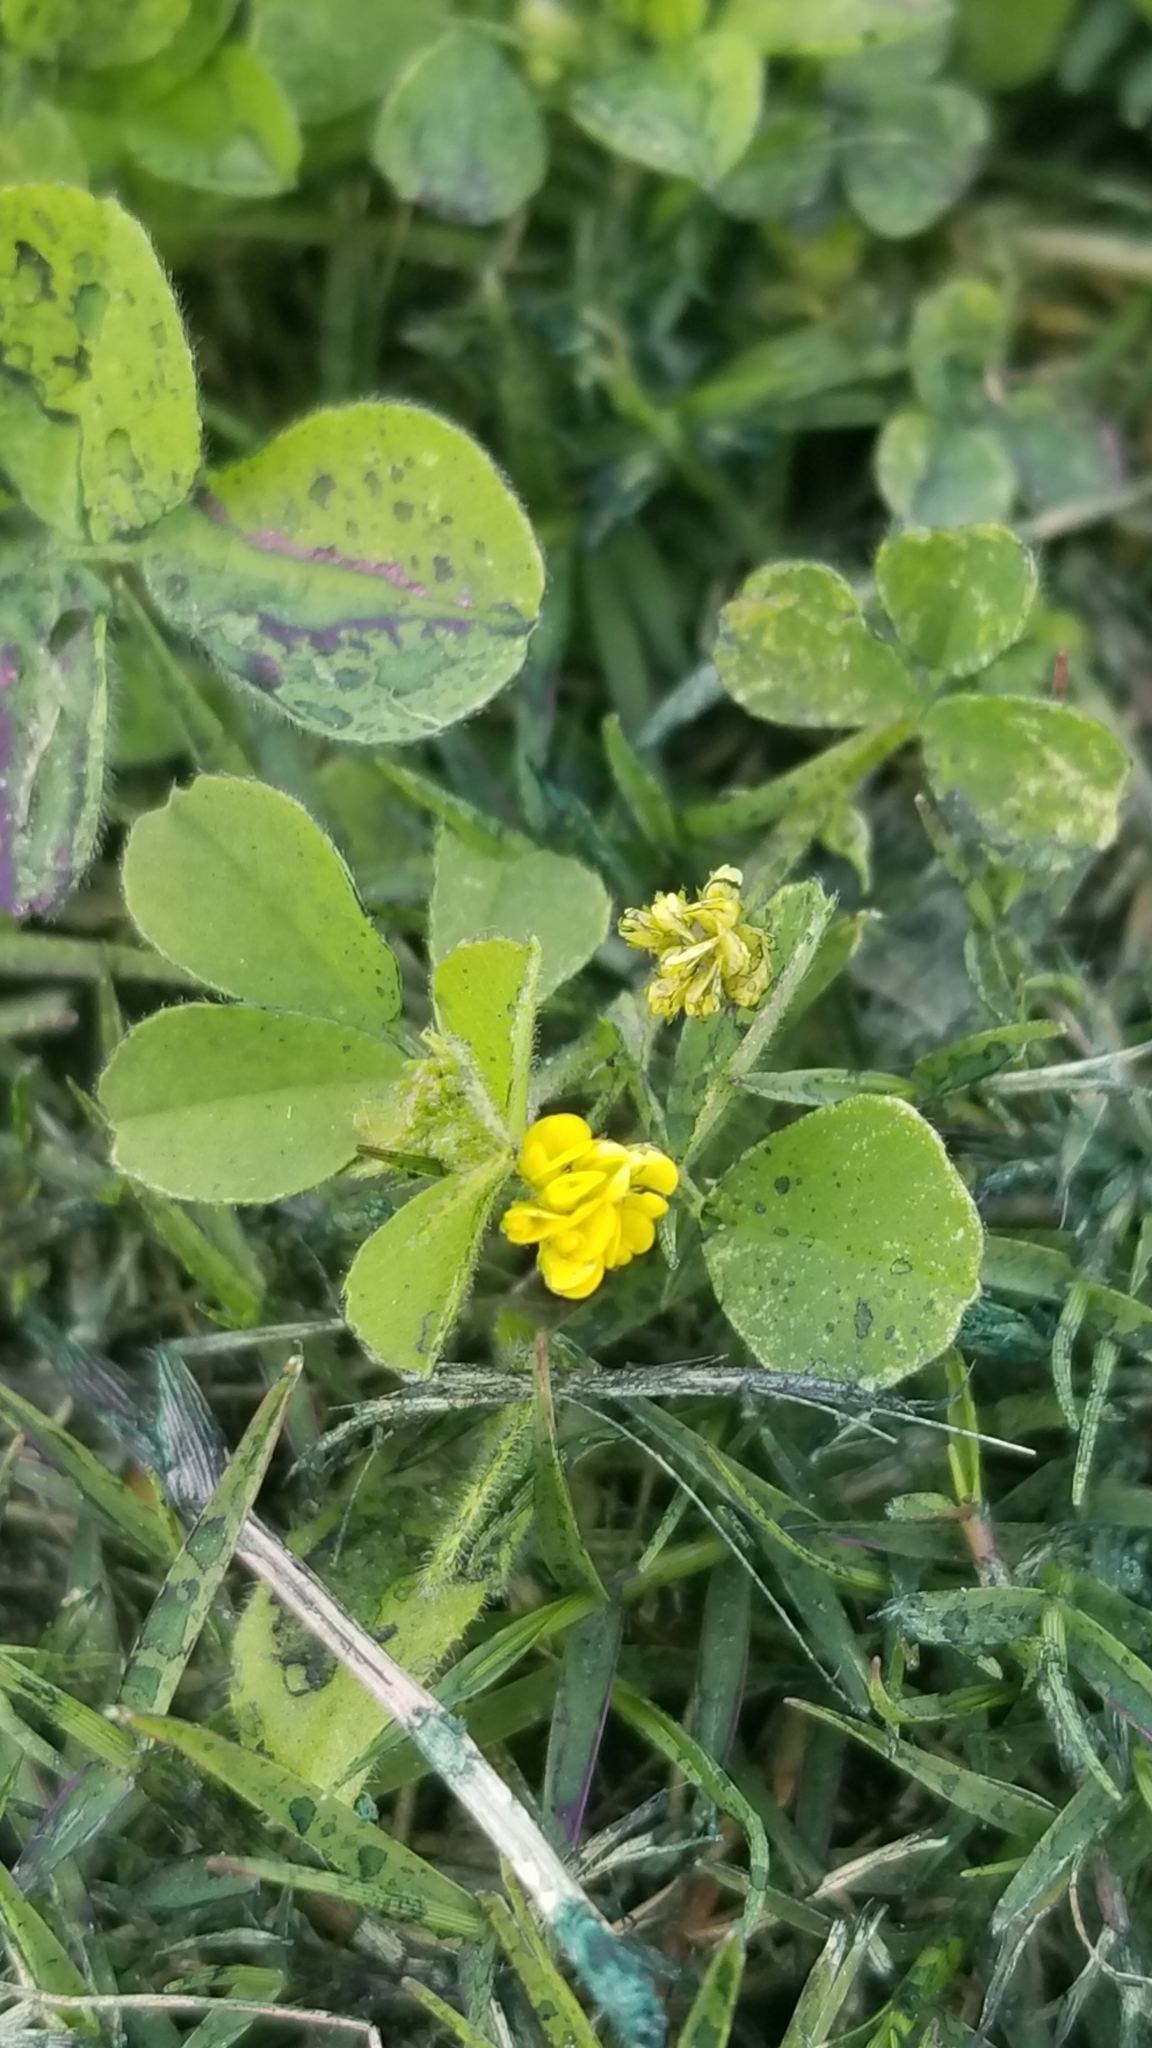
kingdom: Plantae
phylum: Tracheophyta
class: Magnoliopsida
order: Fabales
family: Fabaceae
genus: Medicago
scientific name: Medicago lupulina
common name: Black medick
